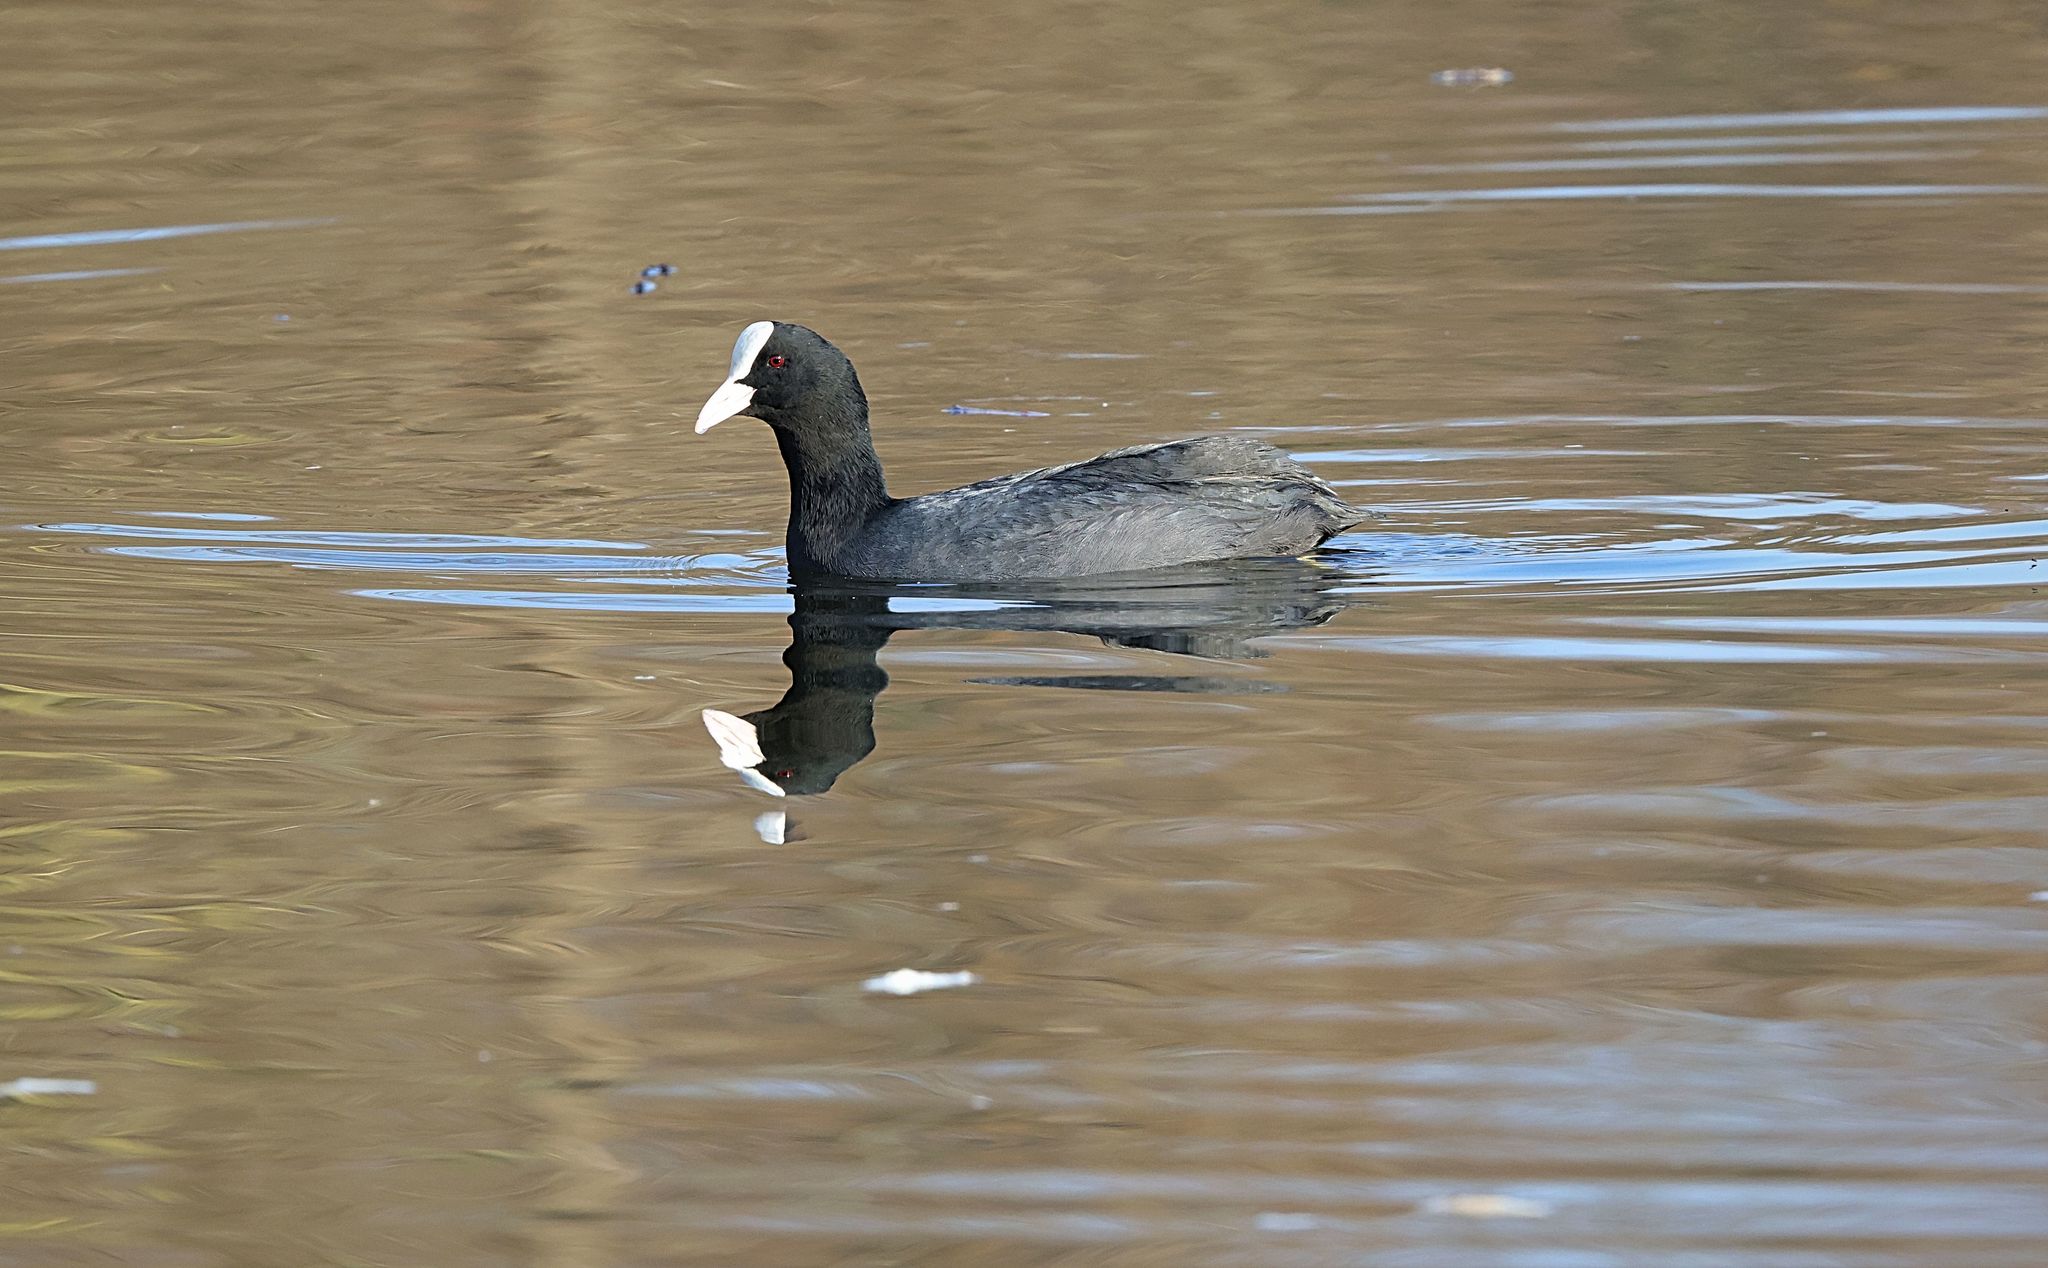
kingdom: Animalia
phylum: Chordata
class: Aves
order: Gruiformes
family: Rallidae
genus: Fulica
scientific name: Fulica atra
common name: Eurasian coot
